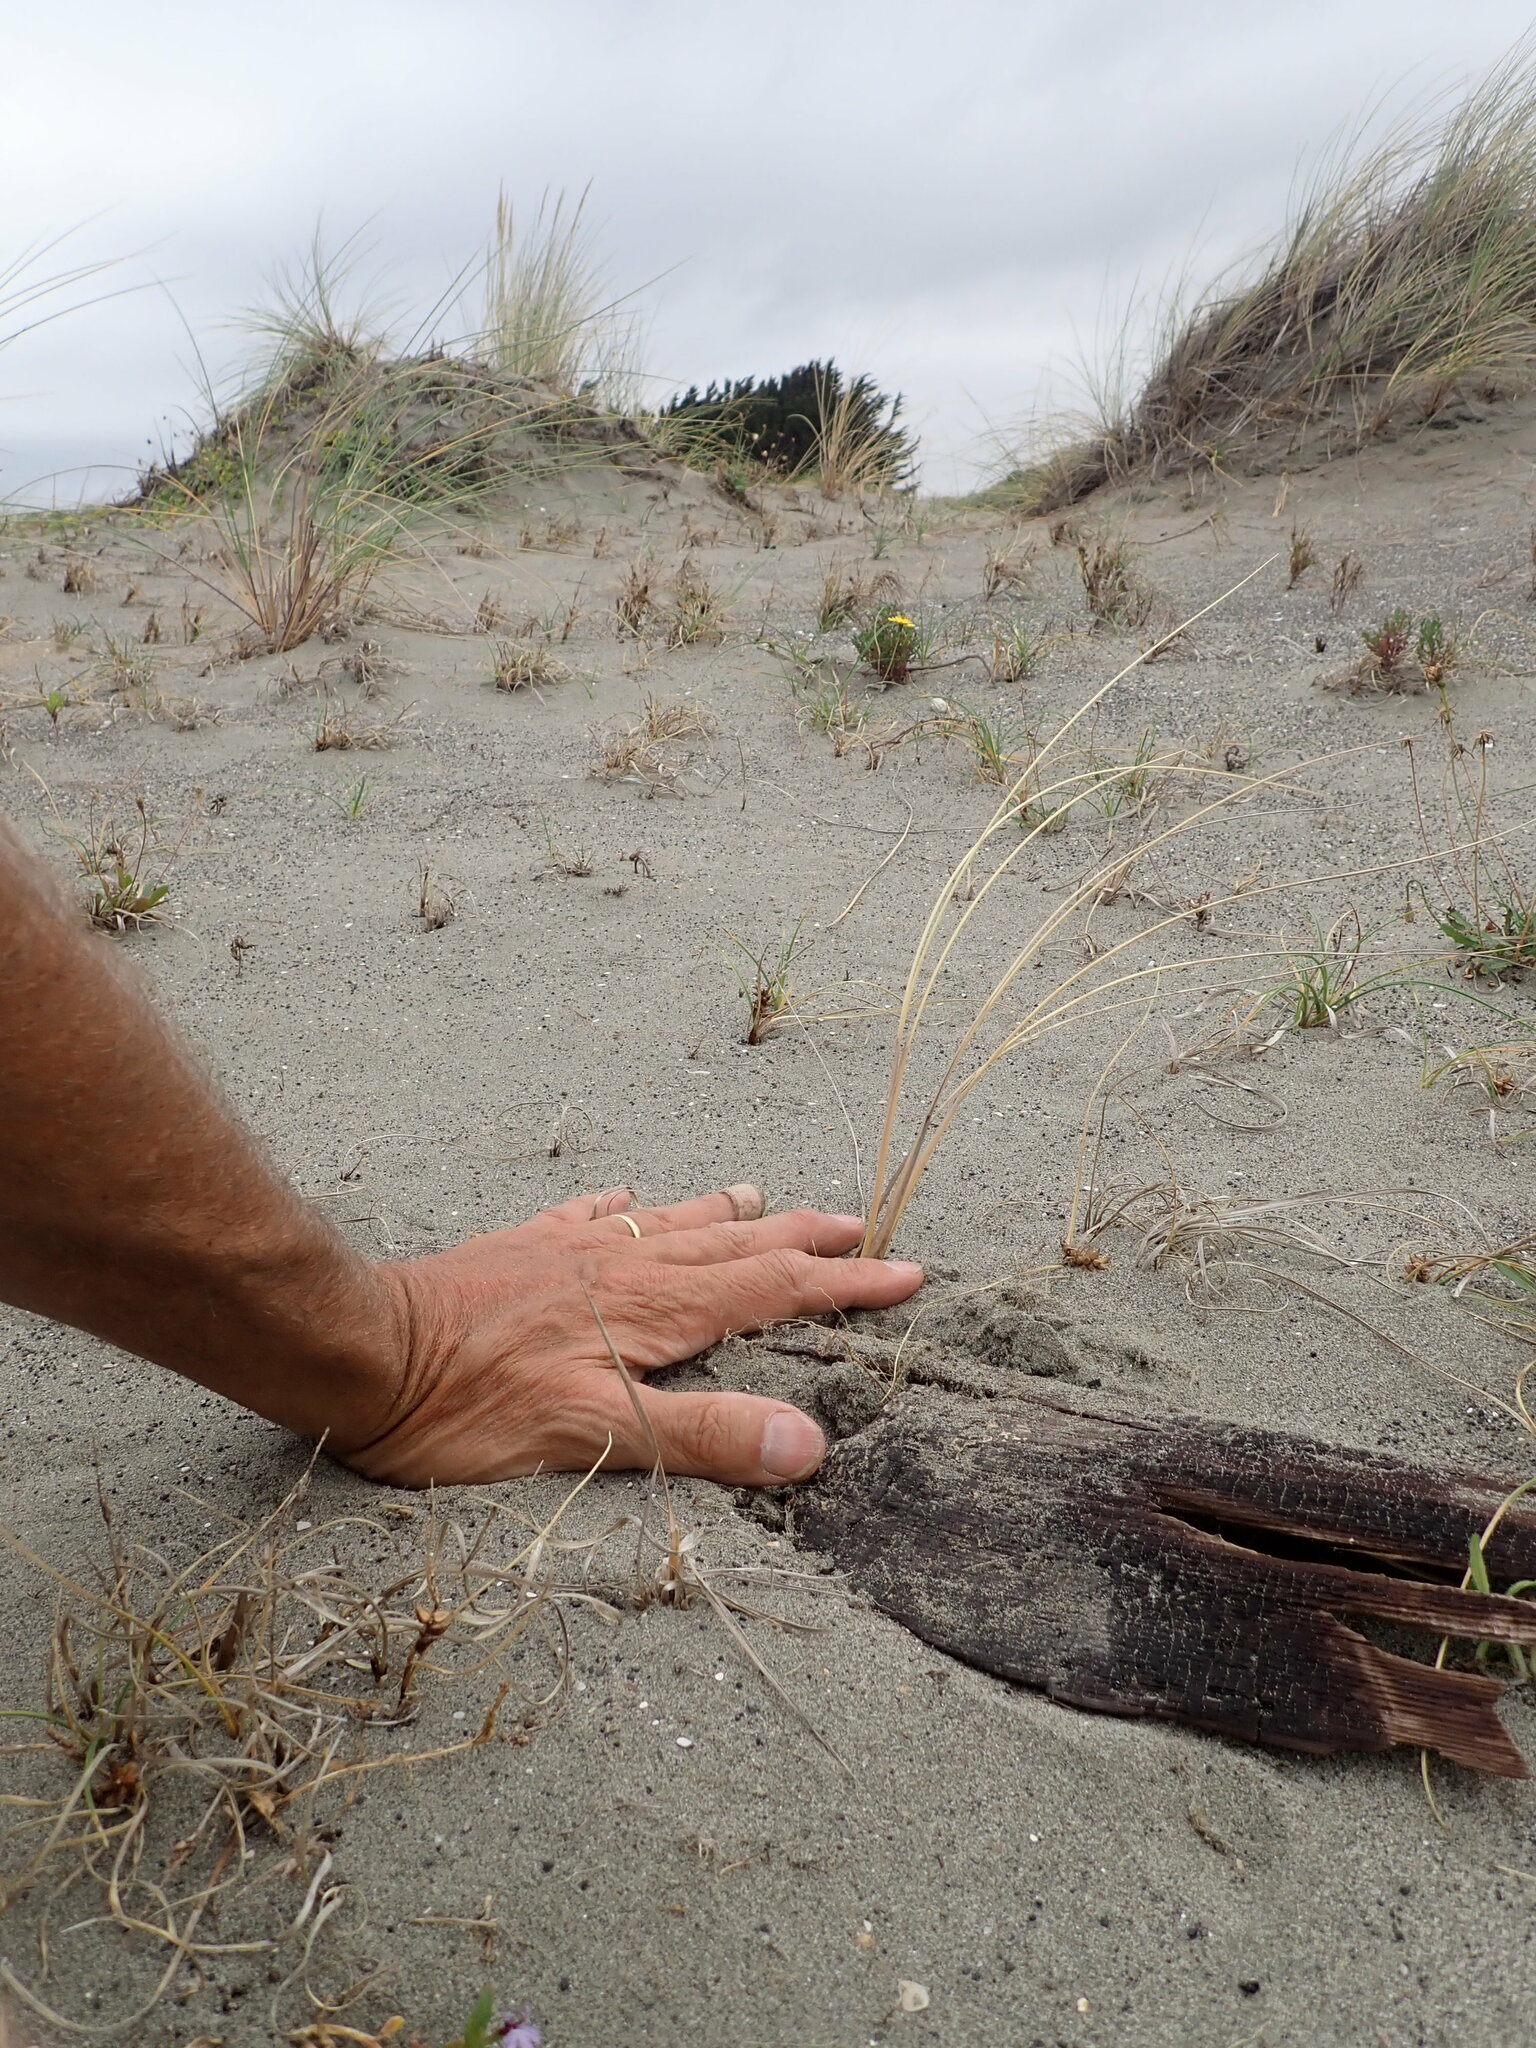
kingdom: Animalia
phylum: Arthropoda
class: Insecta
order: Hymenoptera
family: Sphecidae
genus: Podalonia
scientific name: Podalonia tydei
